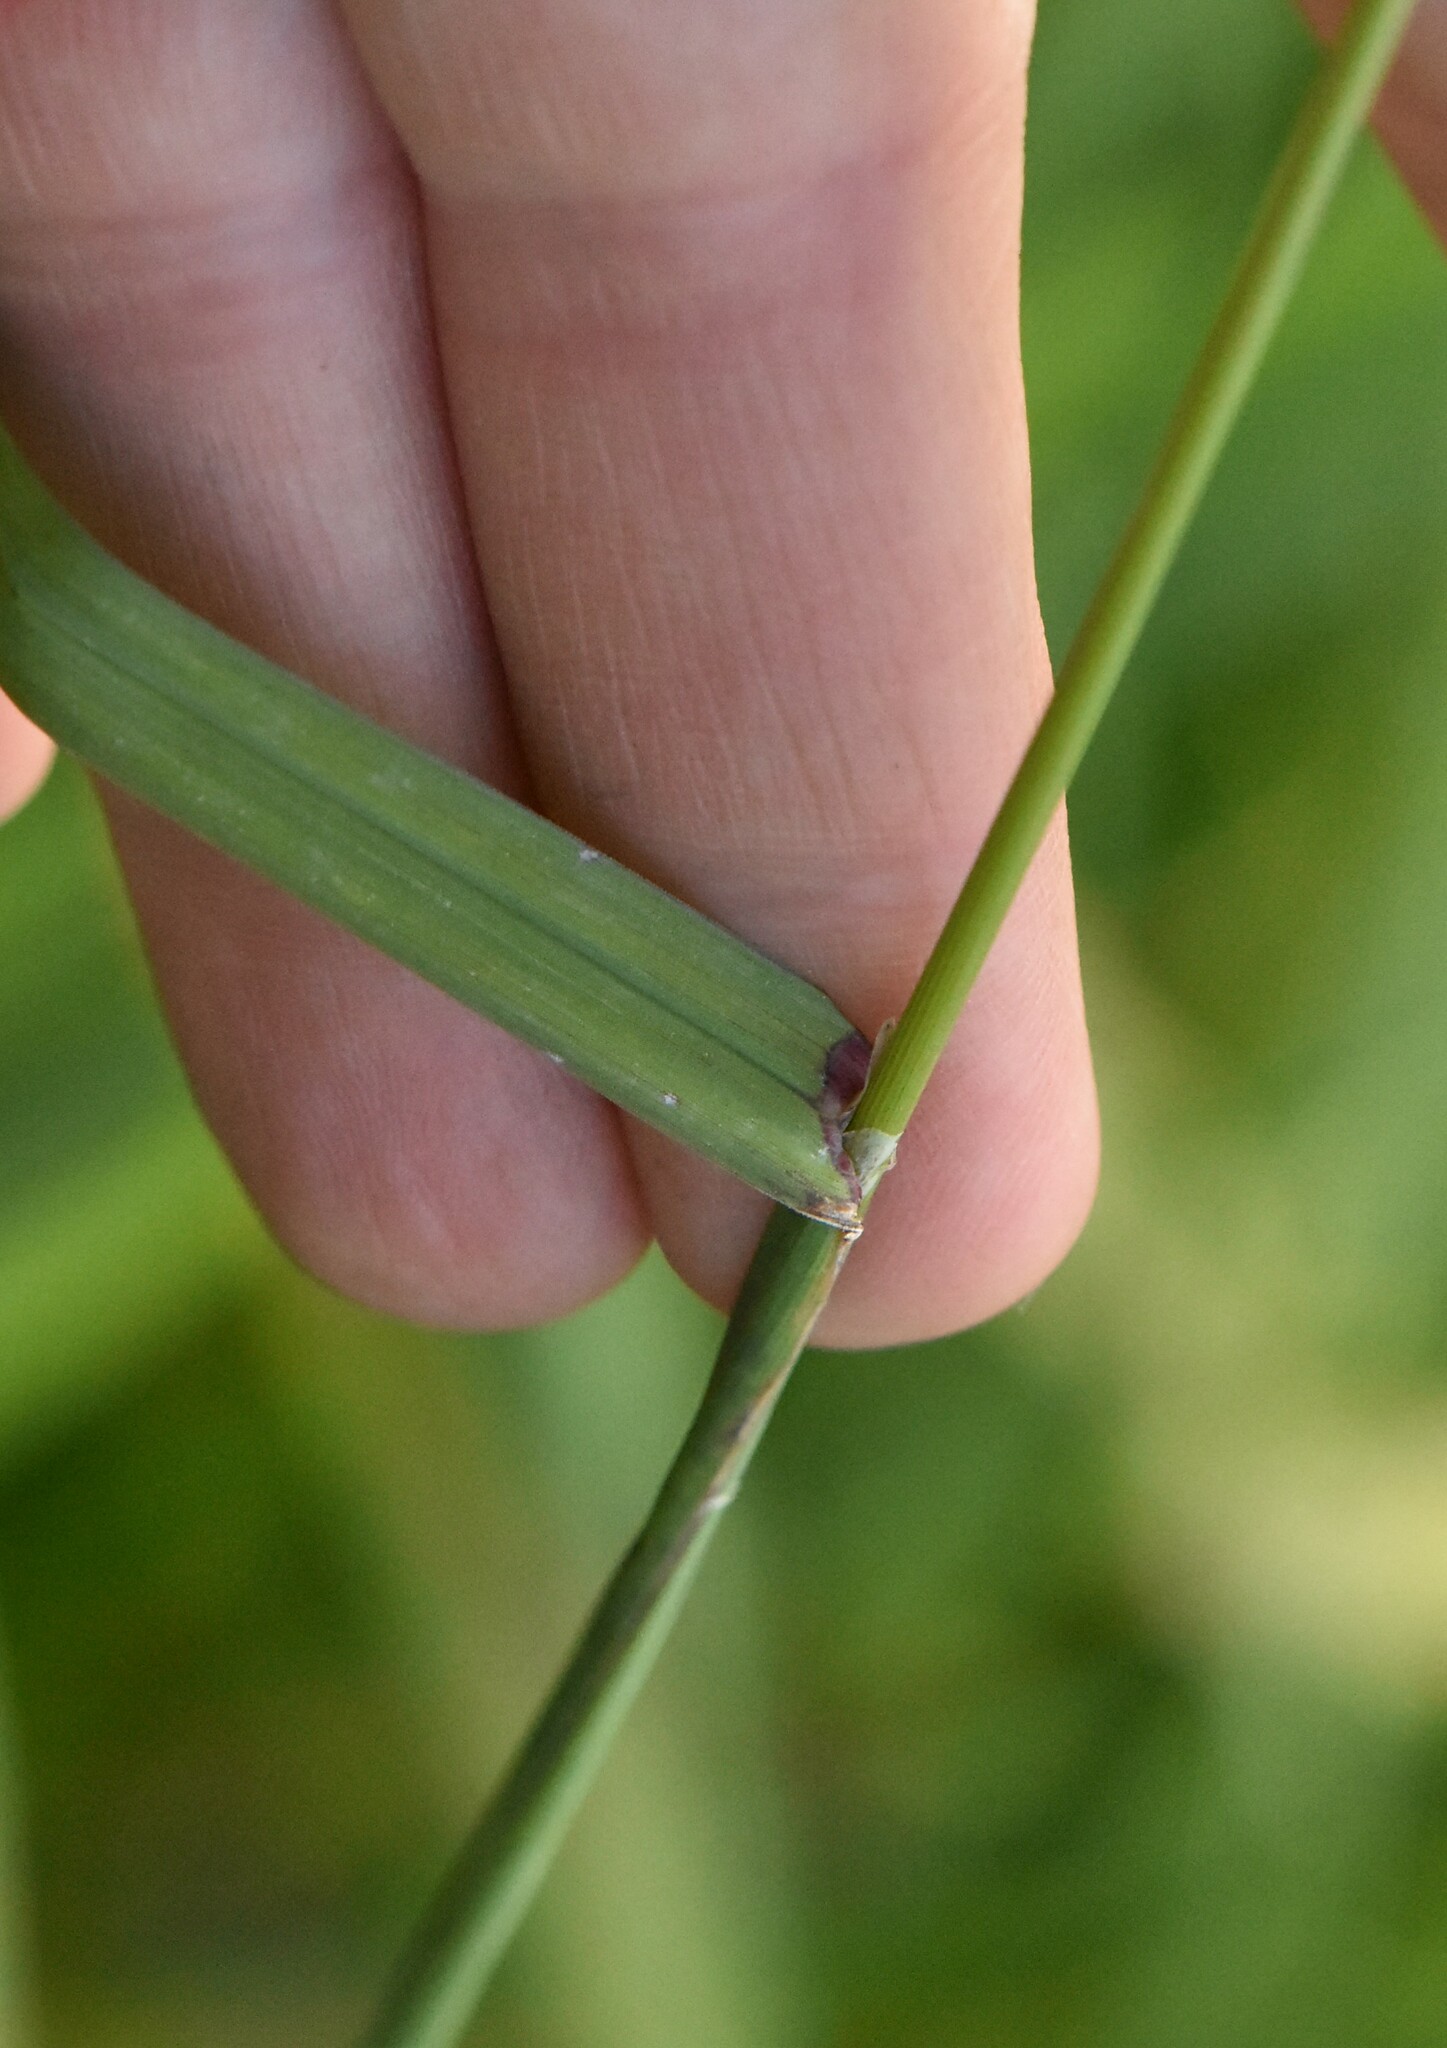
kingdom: Plantae
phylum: Tracheophyta
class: Liliopsida
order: Poales
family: Poaceae
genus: Dactylis
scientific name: Dactylis glomerata
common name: Orchardgrass
